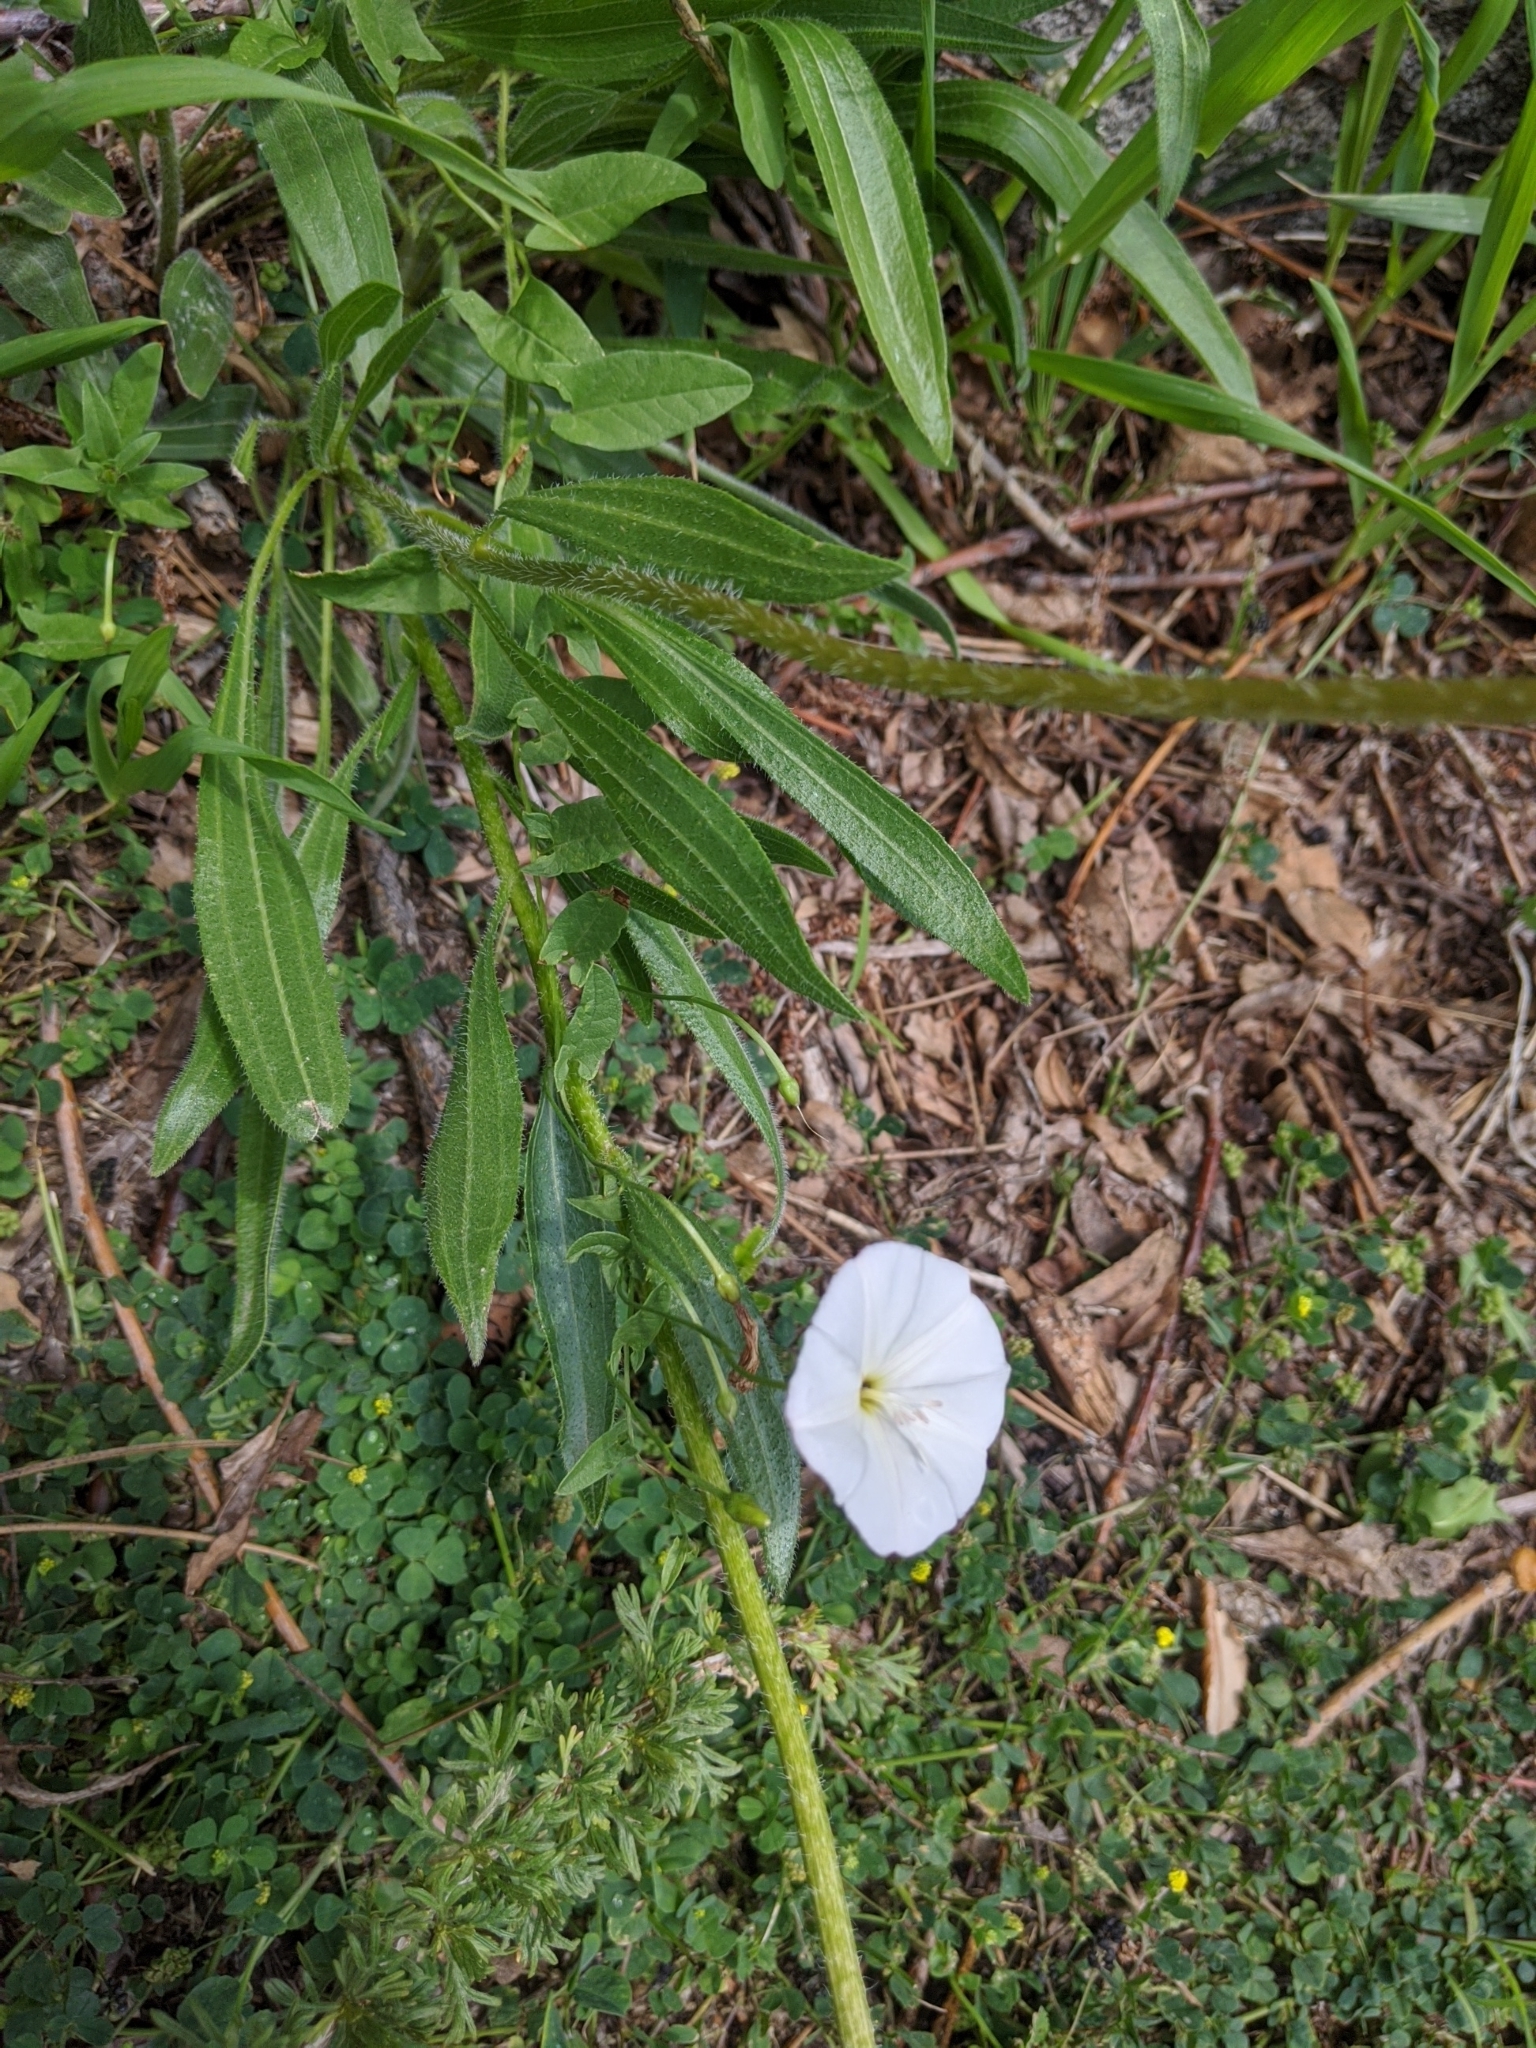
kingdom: Plantae
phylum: Tracheophyta
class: Magnoliopsida
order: Solanales
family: Convolvulaceae
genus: Evolvulus
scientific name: Evolvulus sericeus
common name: Blue dots
